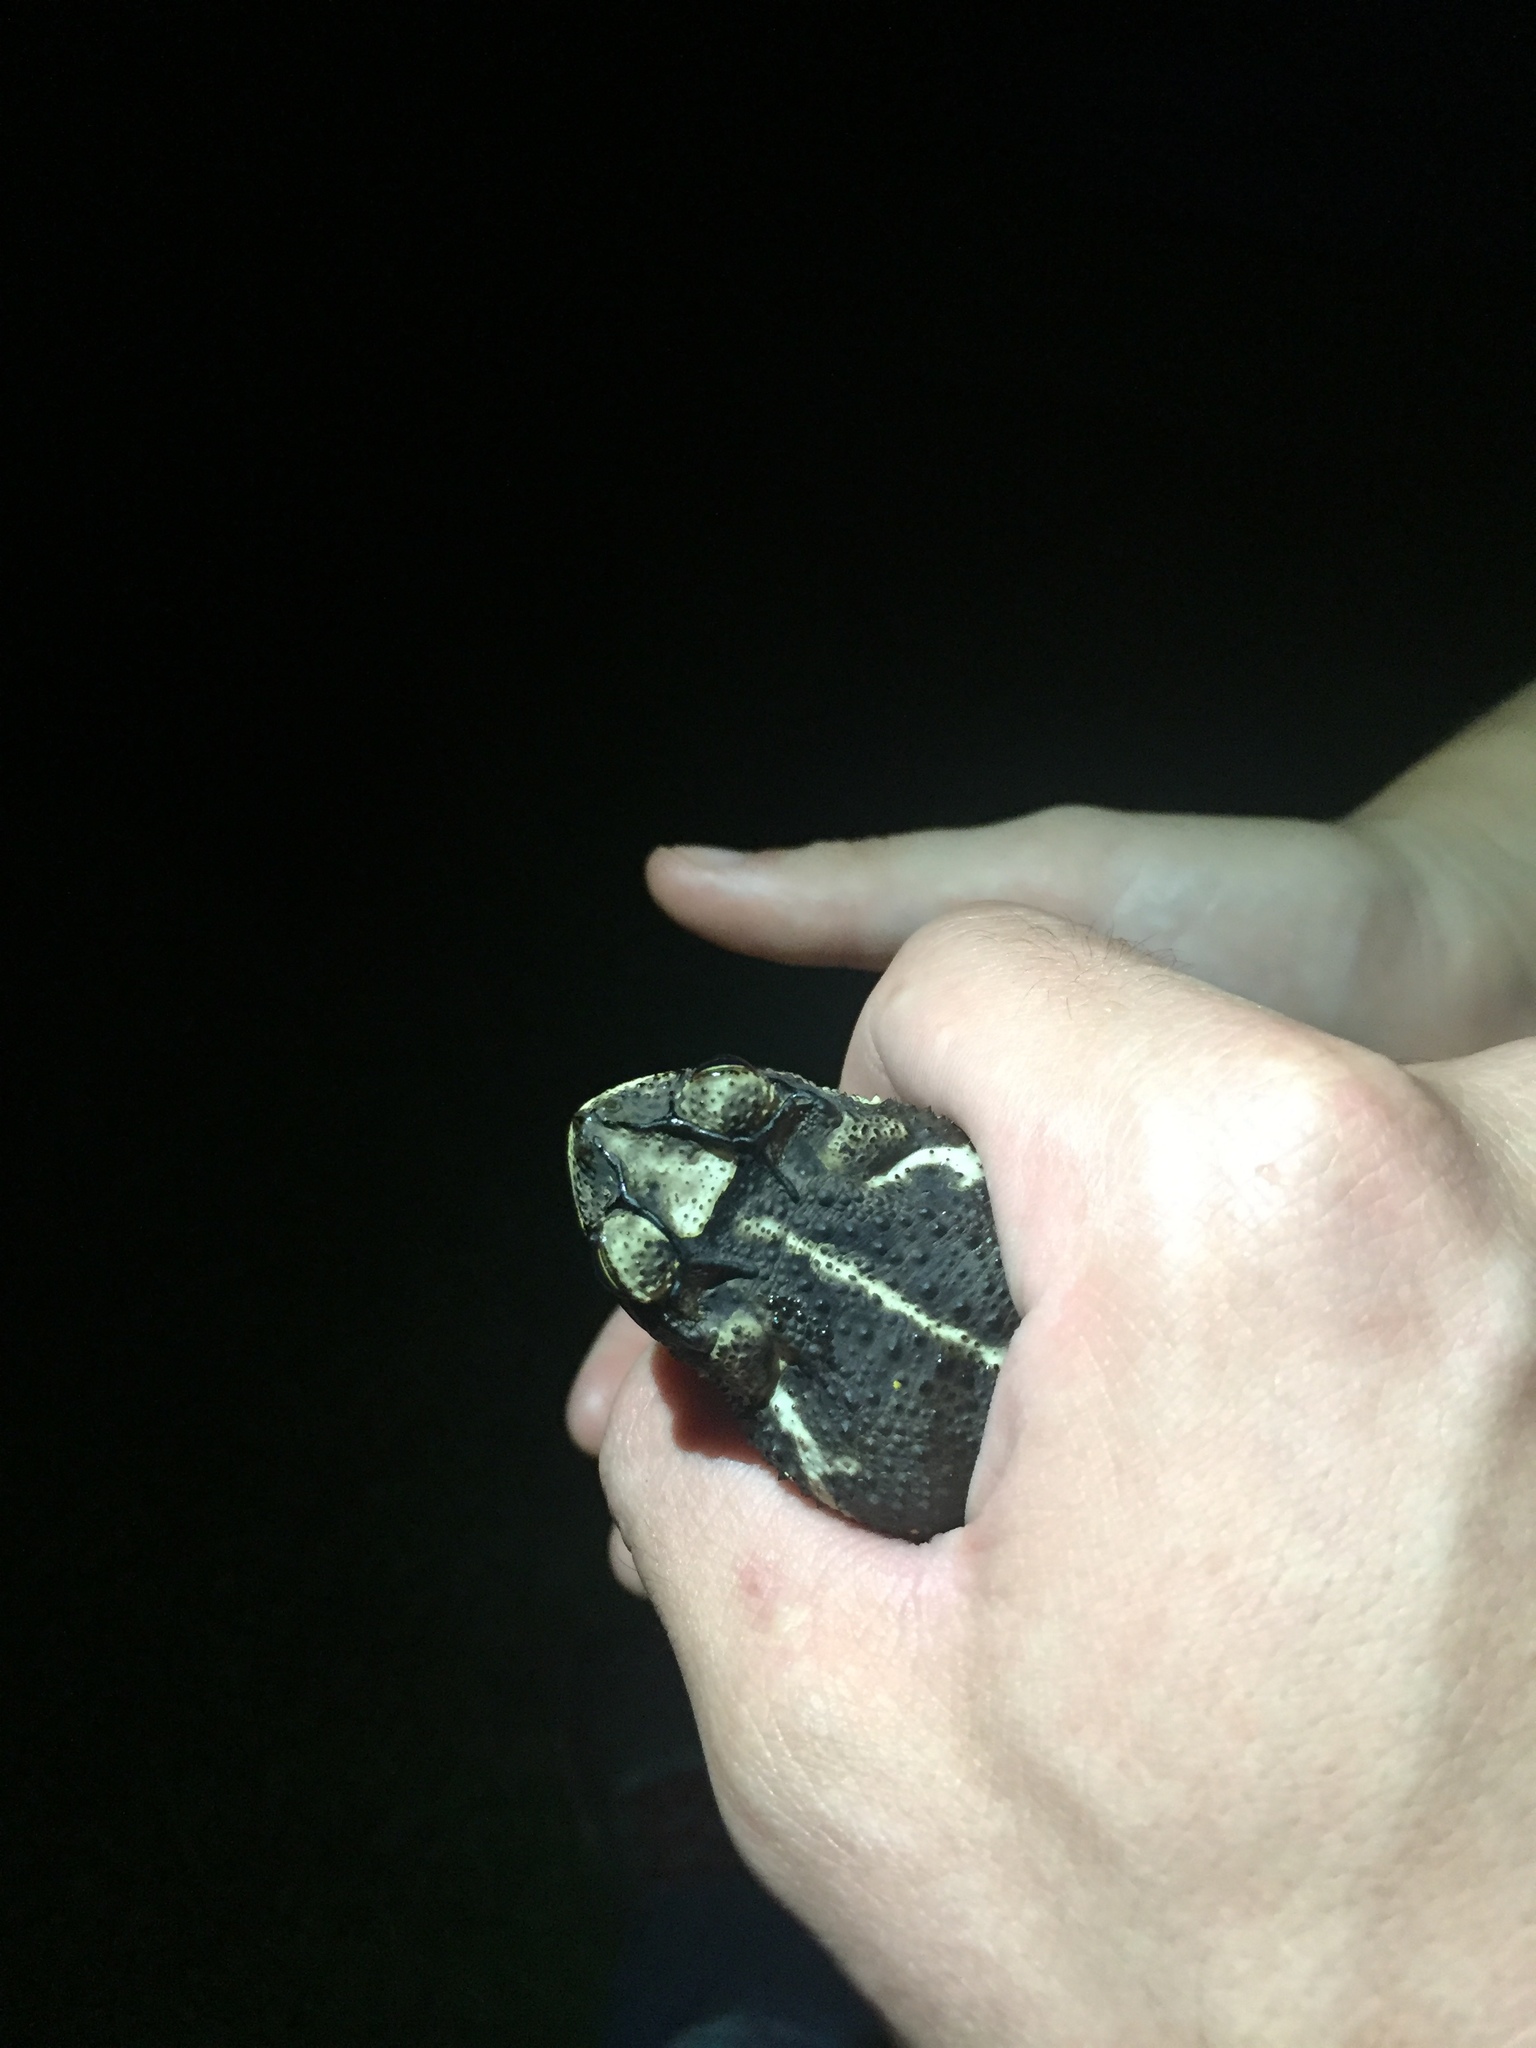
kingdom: Animalia
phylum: Chordata
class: Amphibia
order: Anura
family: Bufonidae
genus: Incilius
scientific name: Incilius nebulifer
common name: Gulf coast toad
